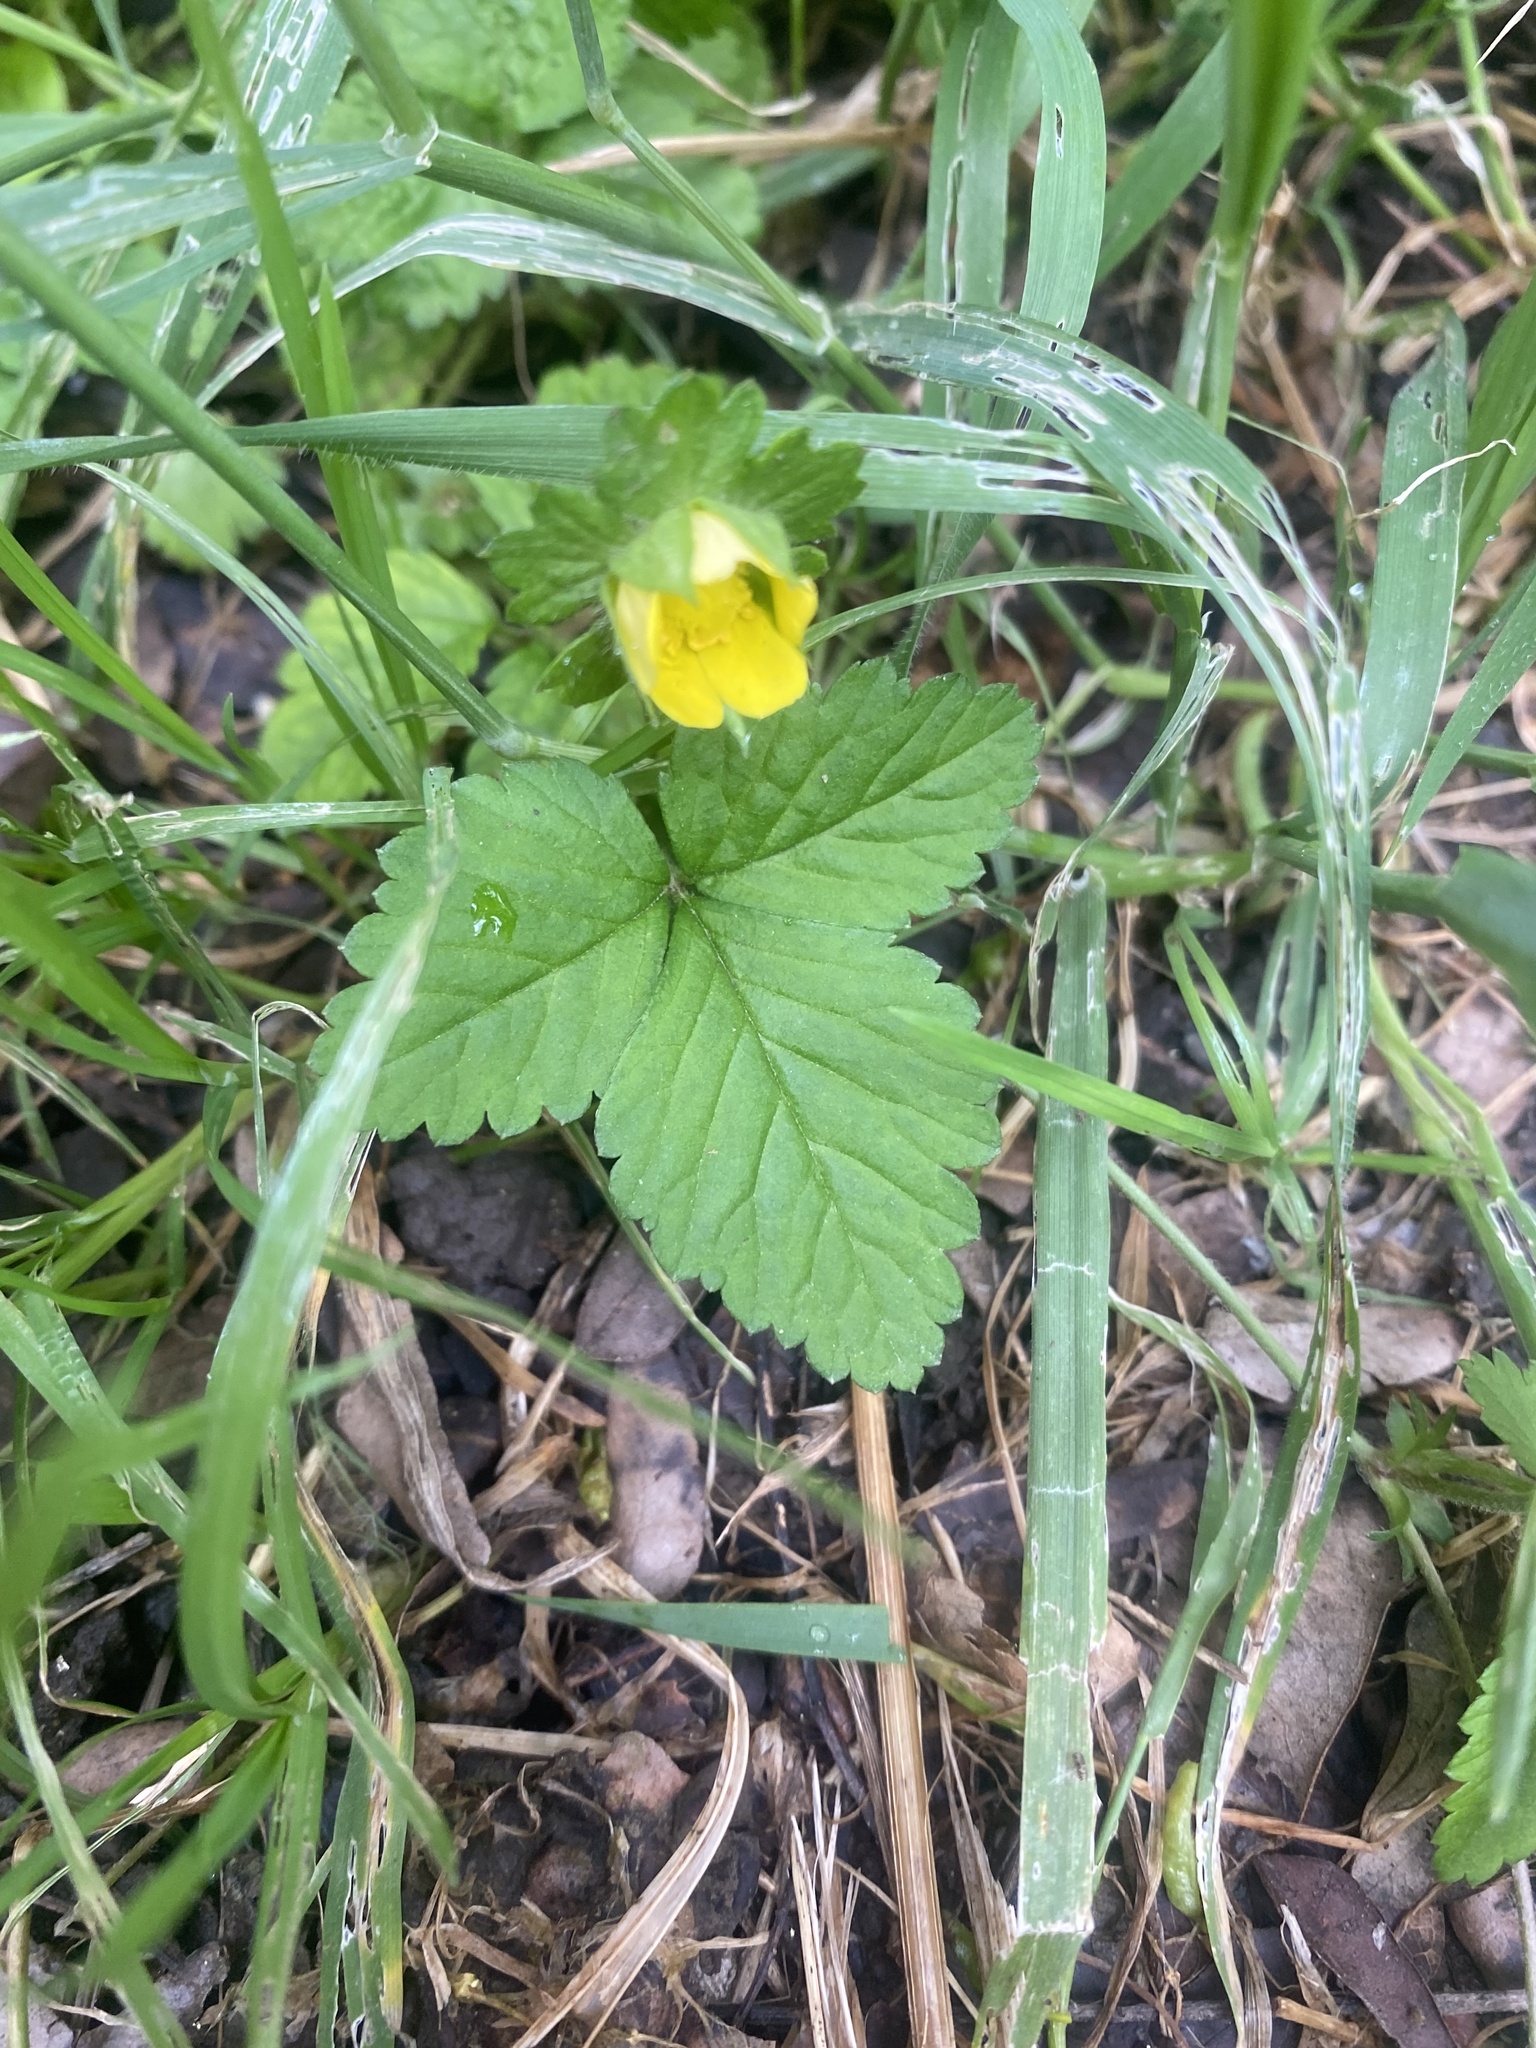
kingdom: Plantae
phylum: Tracheophyta
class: Magnoliopsida
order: Rosales
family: Rosaceae
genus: Potentilla
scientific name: Potentilla indica
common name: Yellow-flowered strawberry
